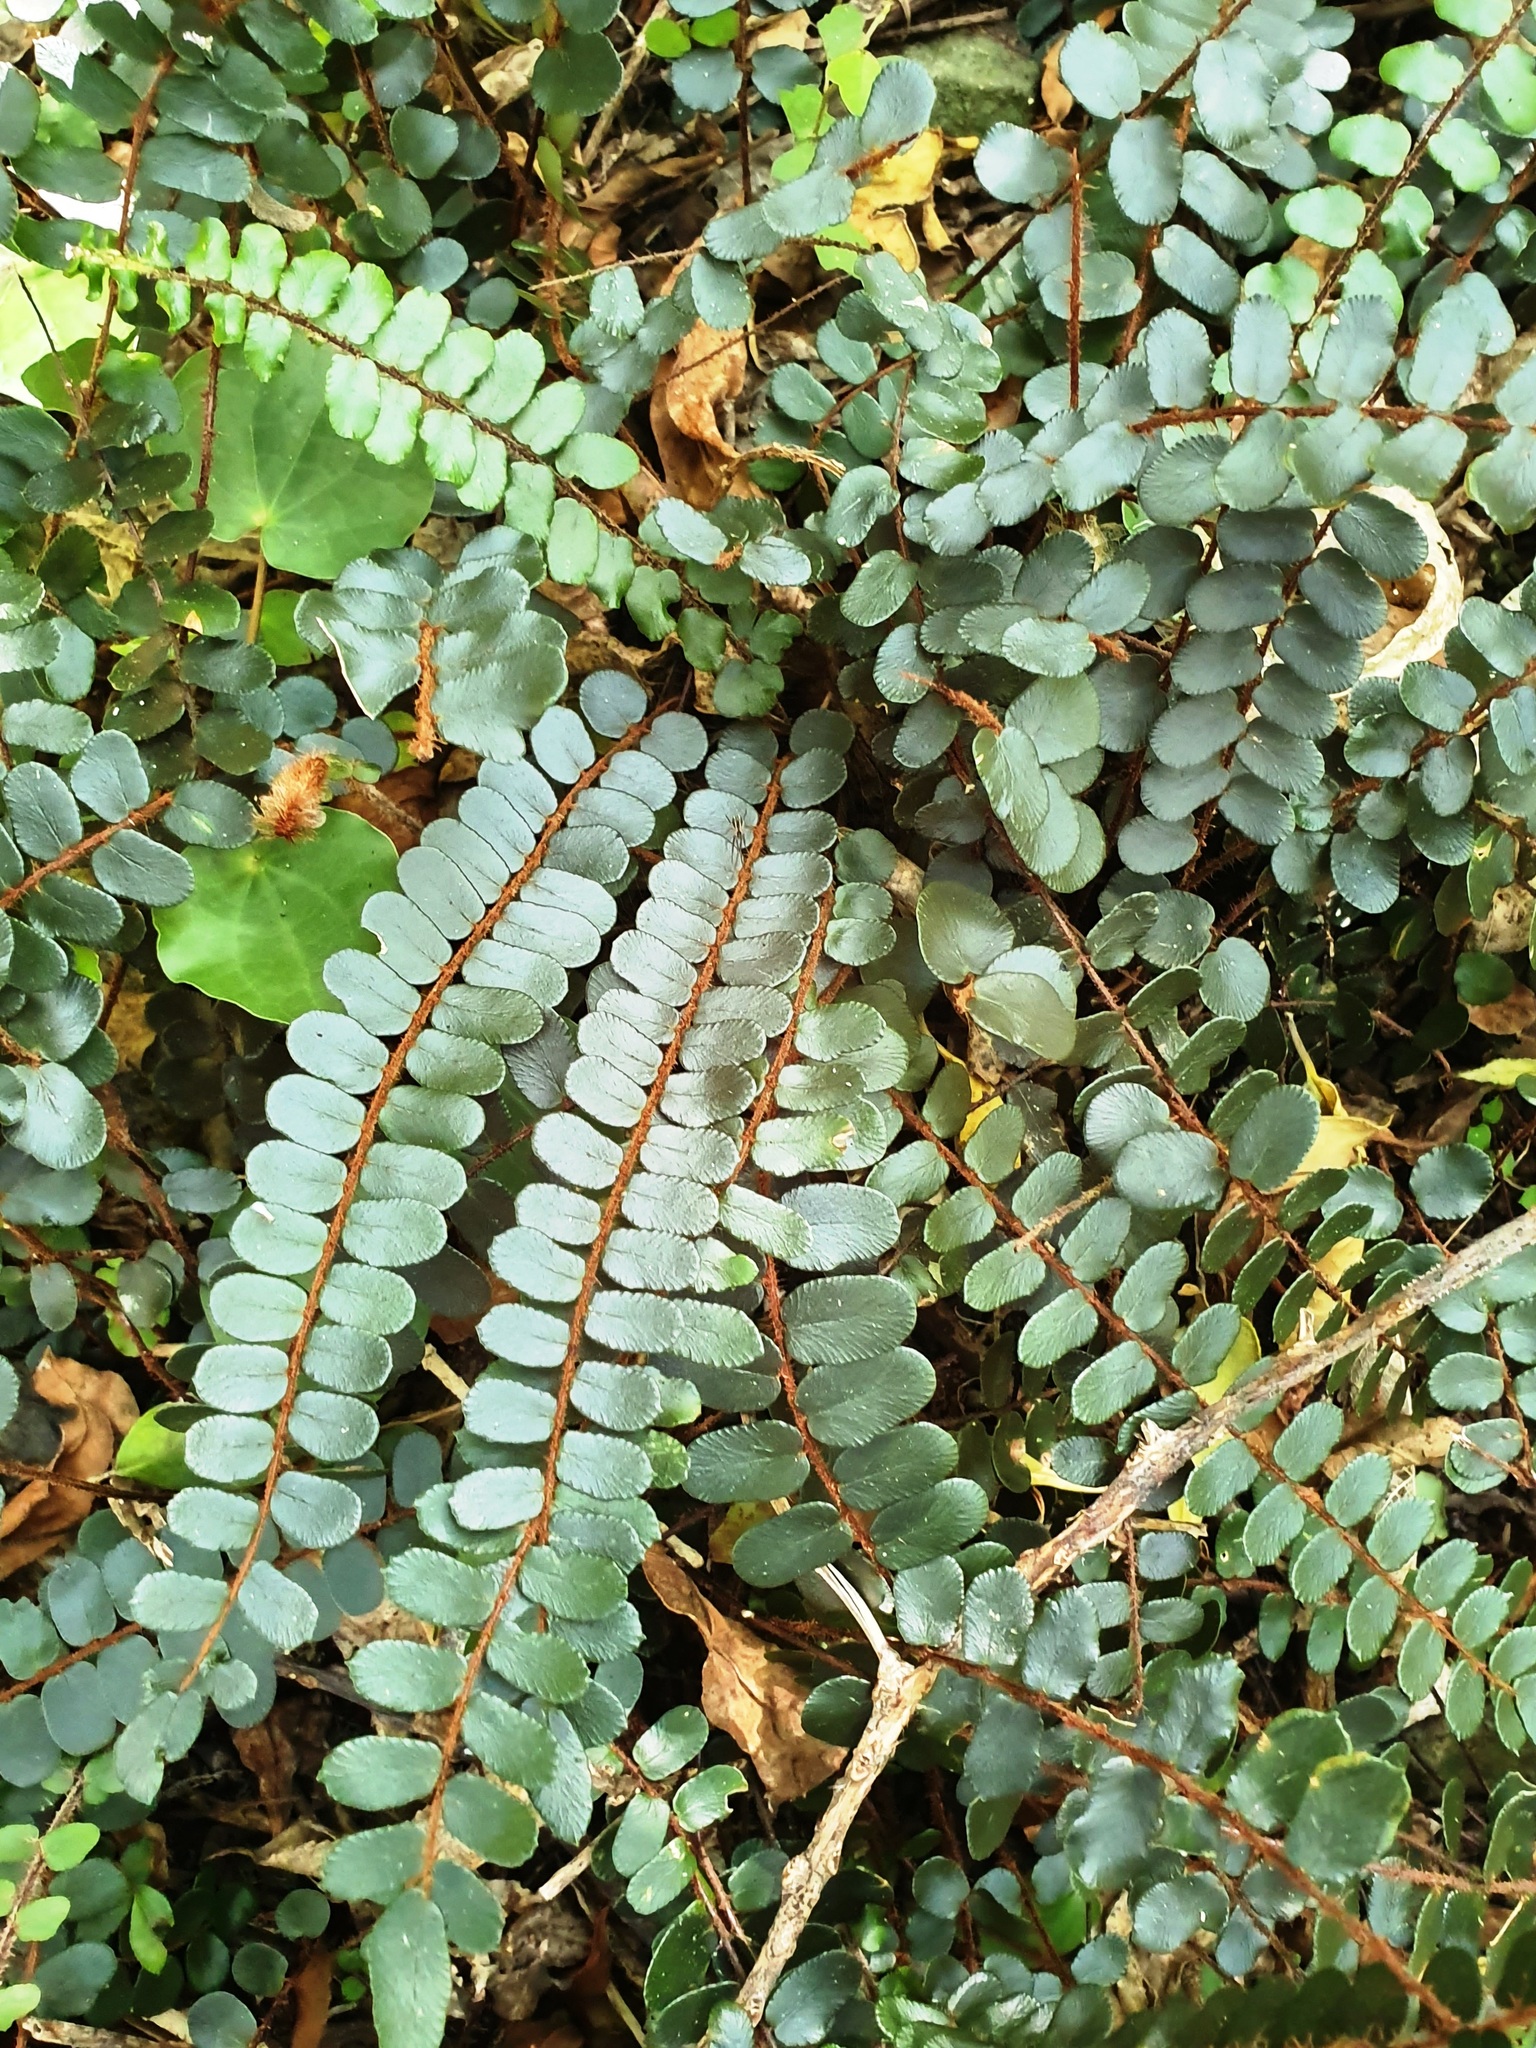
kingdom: Plantae
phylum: Tracheophyta
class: Polypodiopsida
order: Polypodiales
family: Pteridaceae
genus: Pellaea
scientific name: Pellaea rotundifolia
